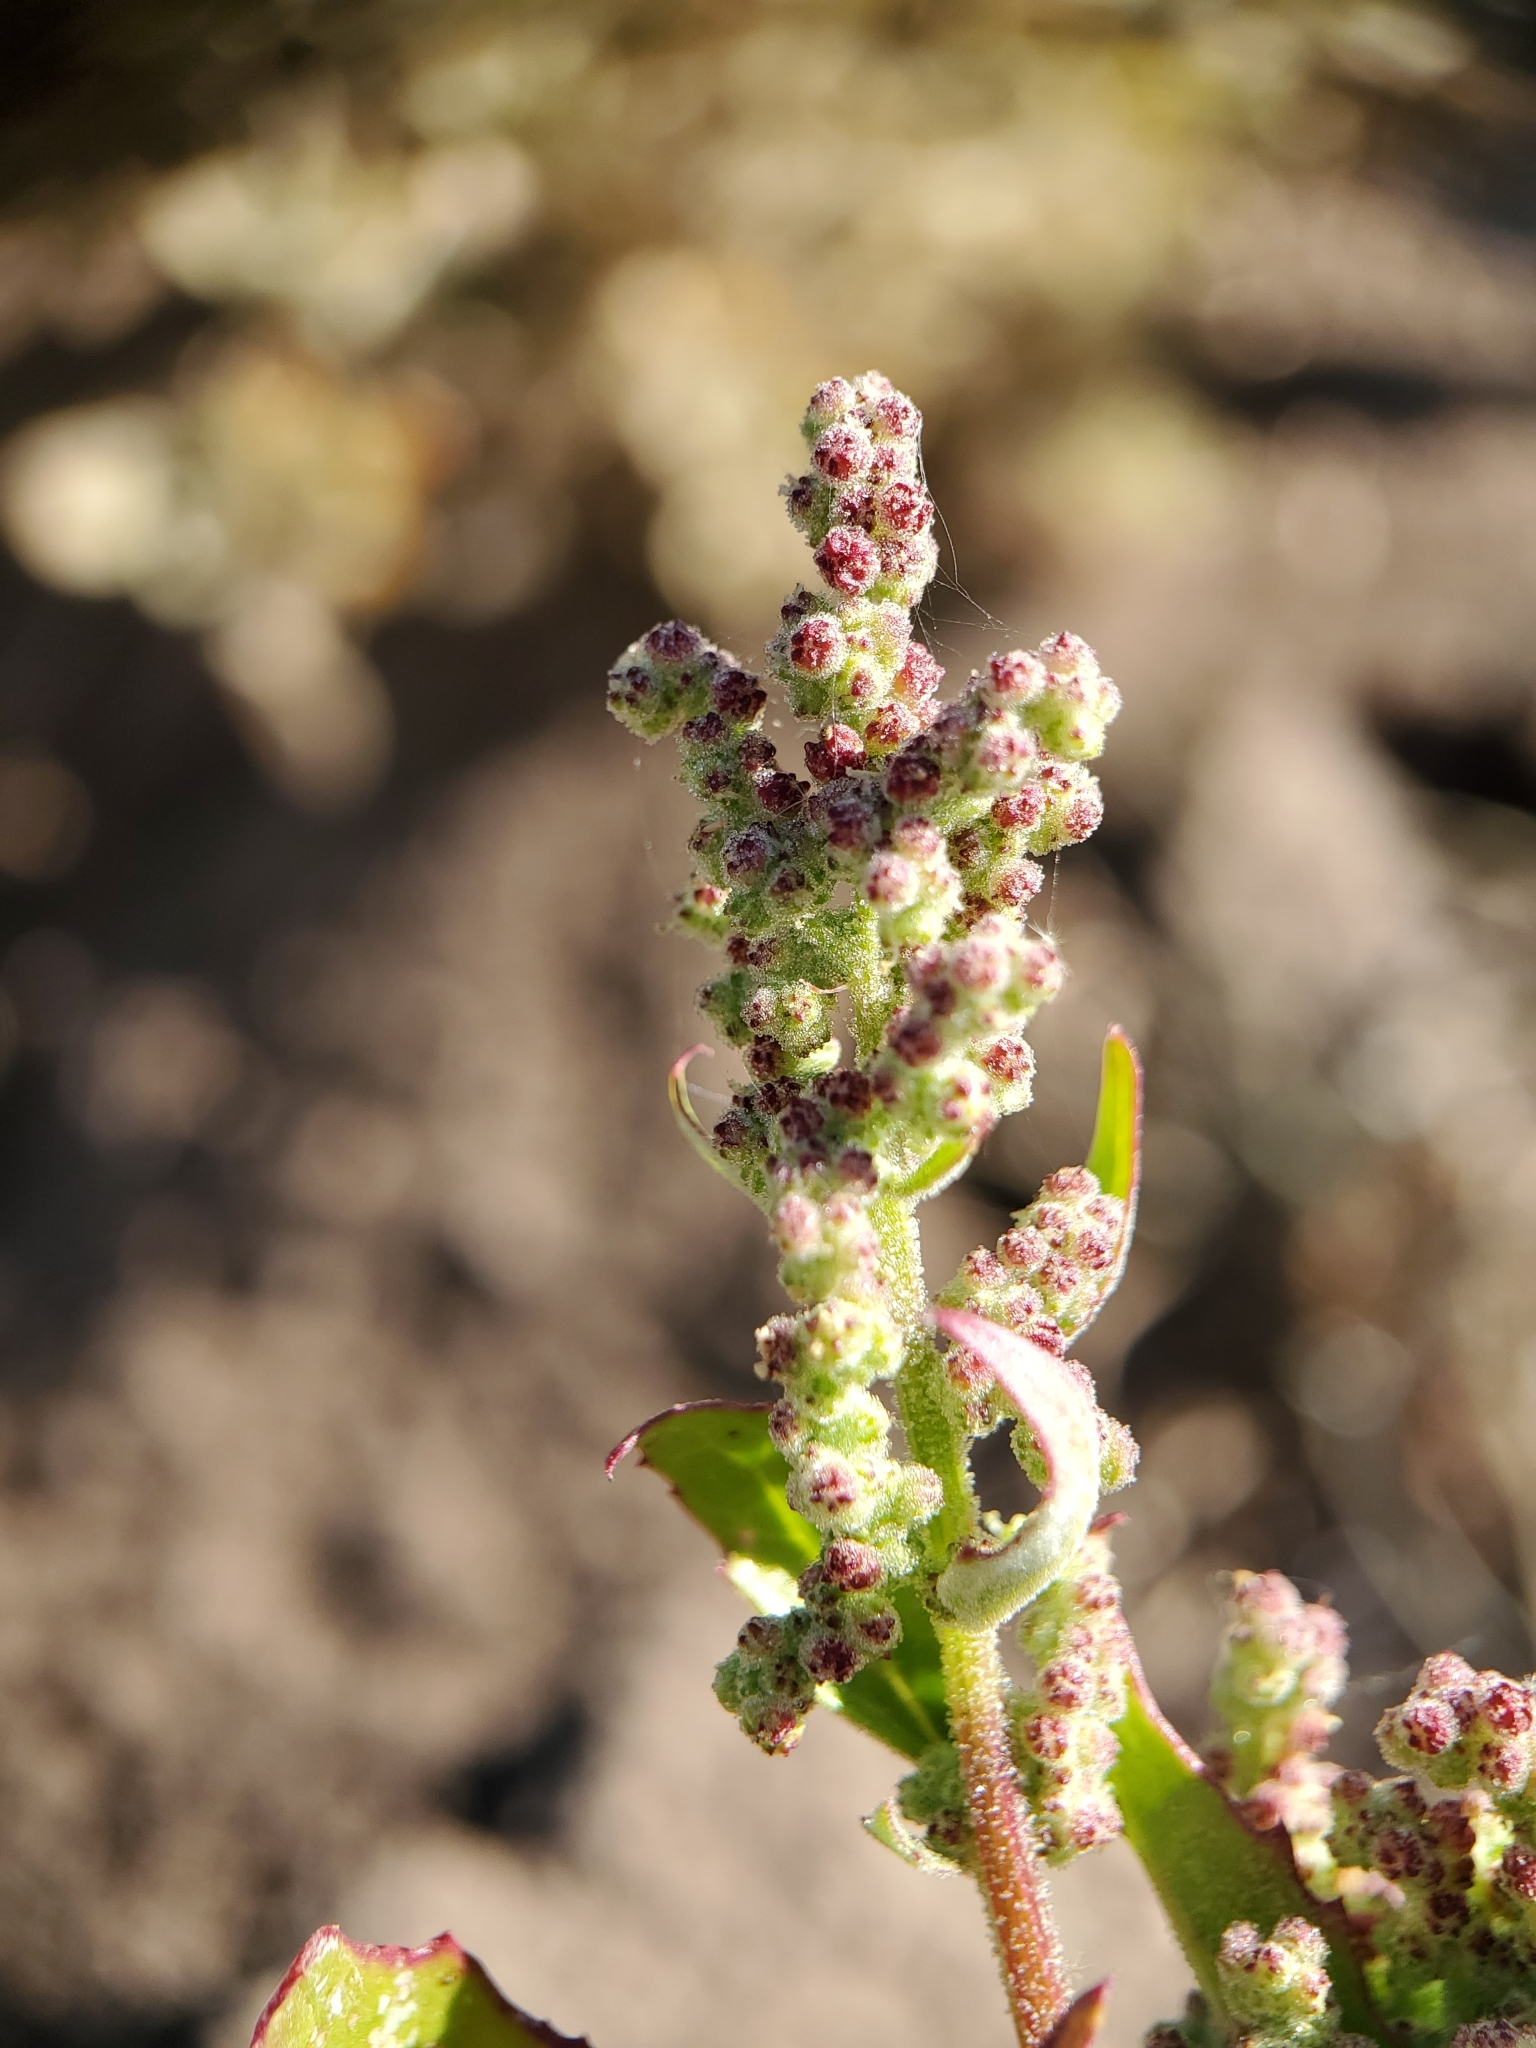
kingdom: Plantae
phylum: Tracheophyta
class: Magnoliopsida
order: Caryophyllales
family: Amaranthaceae
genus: Chenopodiastrum
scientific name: Chenopodiastrum murale
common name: Sowbane
